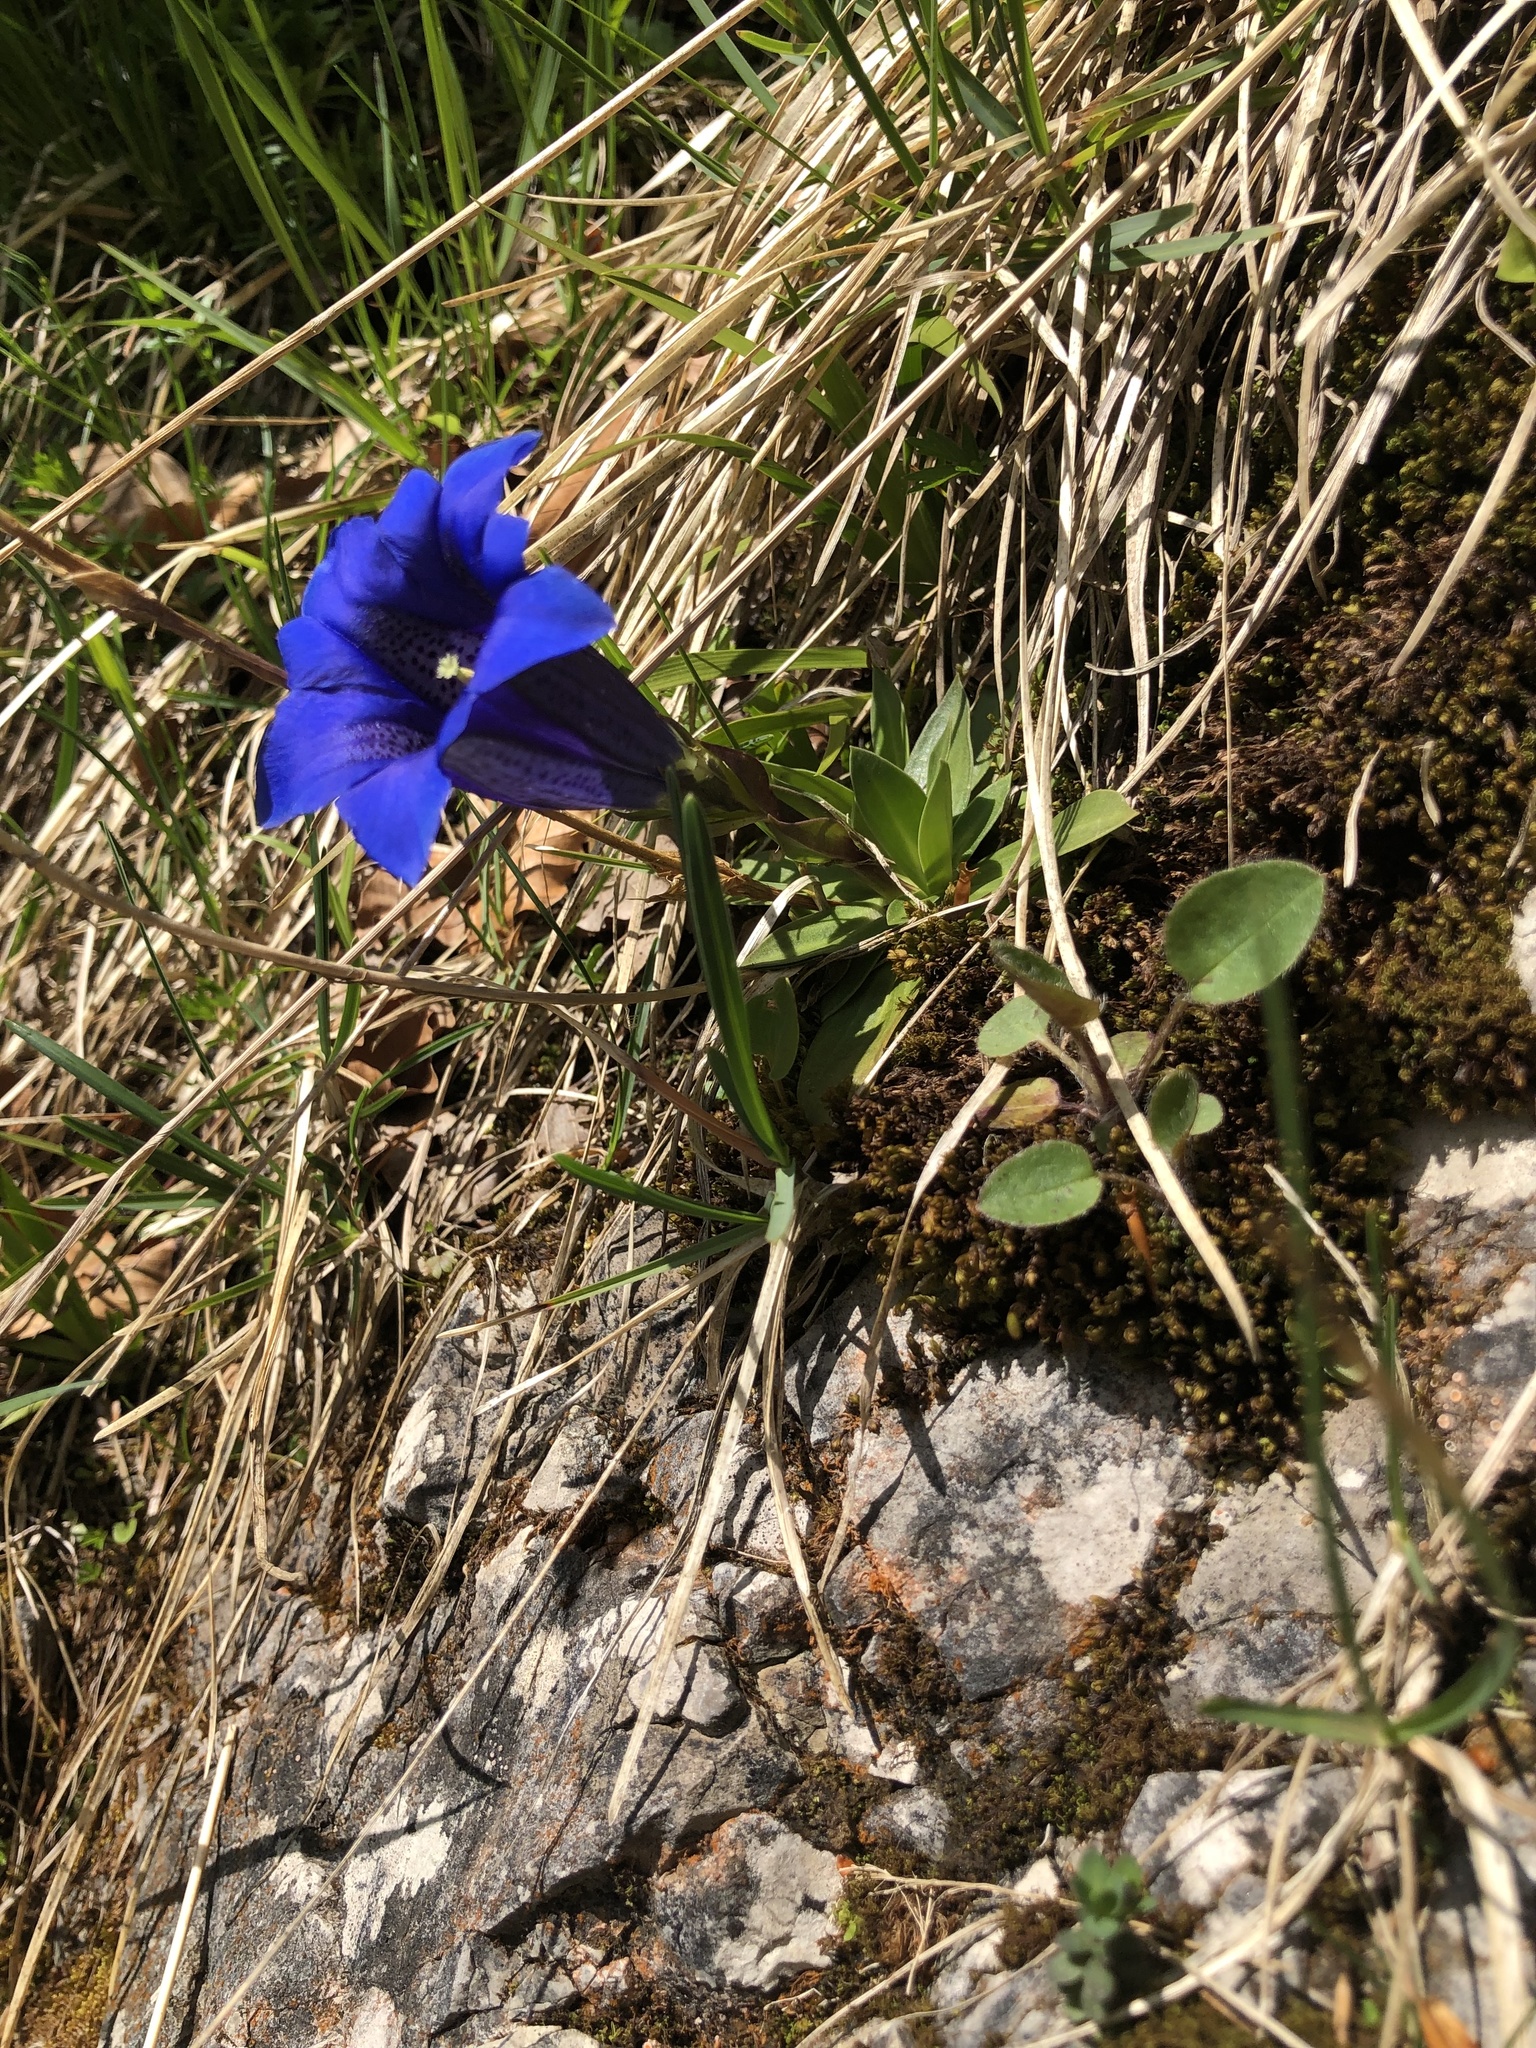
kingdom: Plantae
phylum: Tracheophyta
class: Magnoliopsida
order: Gentianales
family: Gentianaceae
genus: Gentiana
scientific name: Gentiana clusii
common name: Trumpet gentian
